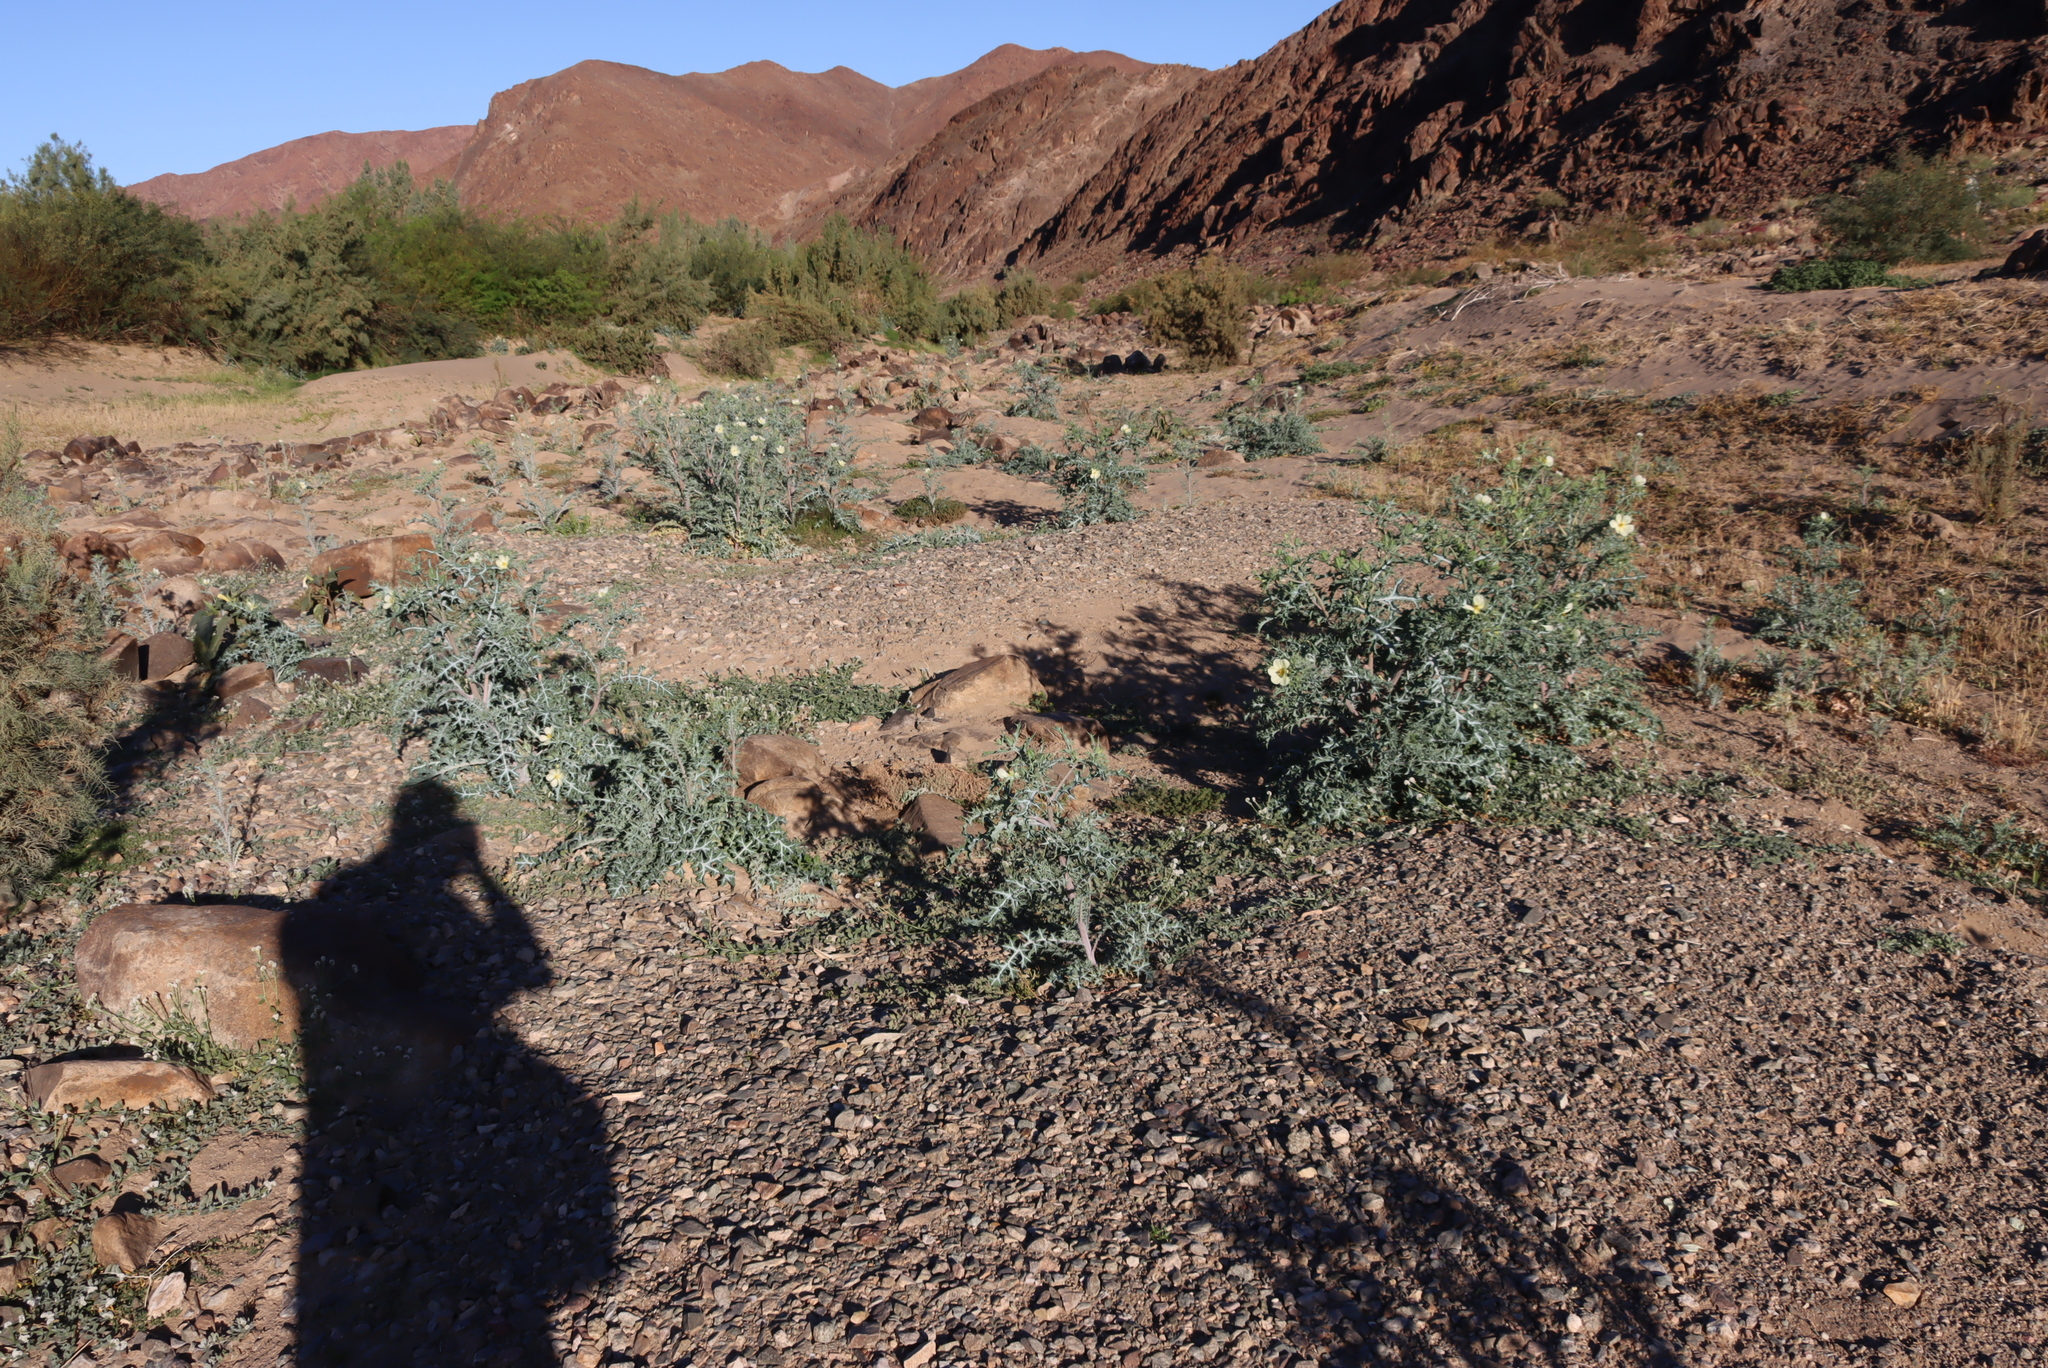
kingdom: Plantae
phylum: Tracheophyta
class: Magnoliopsida
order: Ranunculales
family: Papaveraceae
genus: Argemone
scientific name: Argemone ochroleuca
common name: White-flower mexican-poppy
